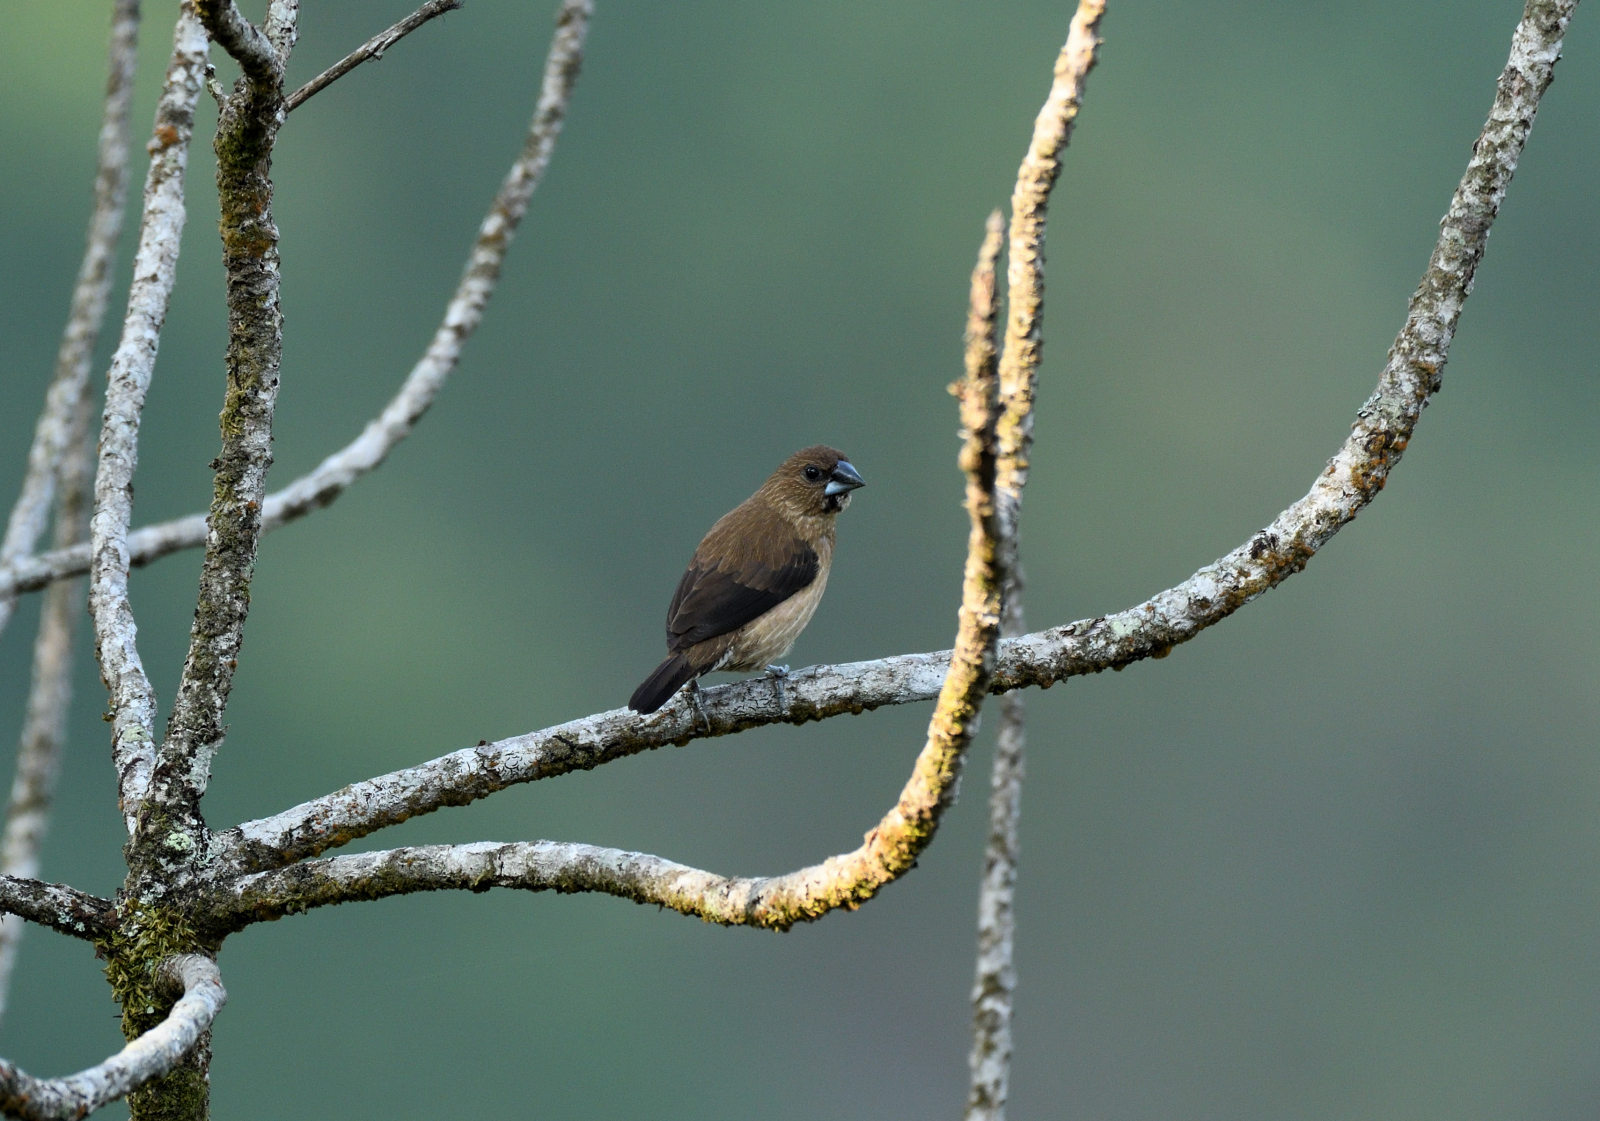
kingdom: Animalia
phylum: Chordata
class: Aves
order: Passeriformes
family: Estrildidae
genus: Lonchura
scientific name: Lonchura kelaarti
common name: Black-throated munia
